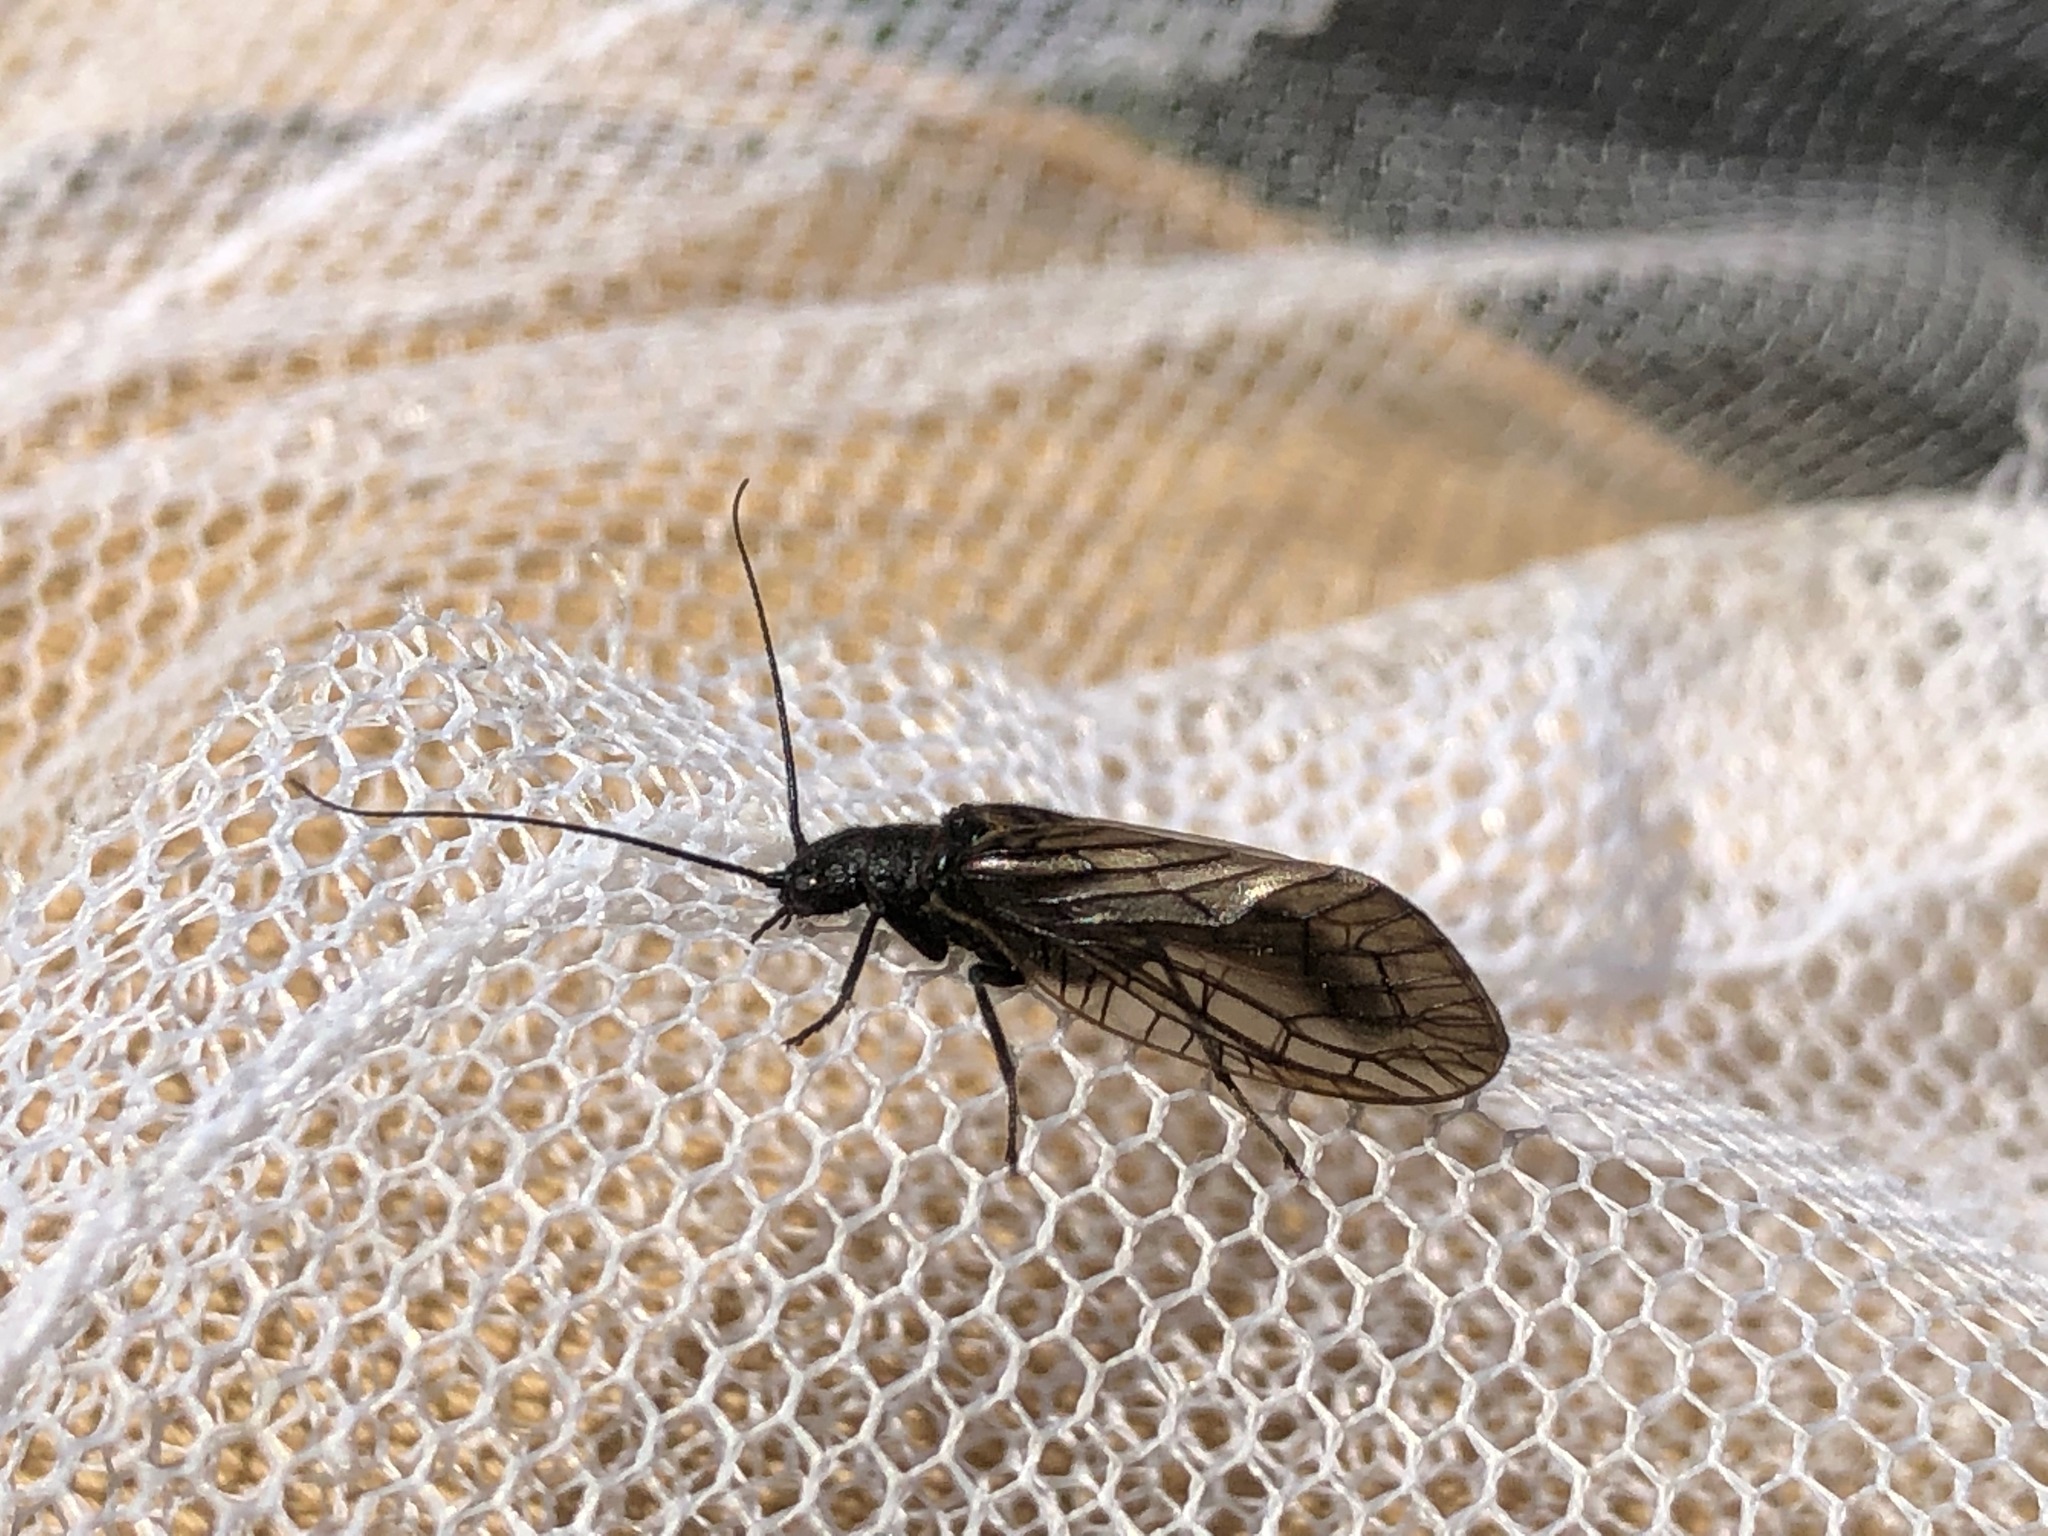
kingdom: Animalia
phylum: Arthropoda
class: Insecta
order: Megaloptera
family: Sialidae
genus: Sialis
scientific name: Sialis
